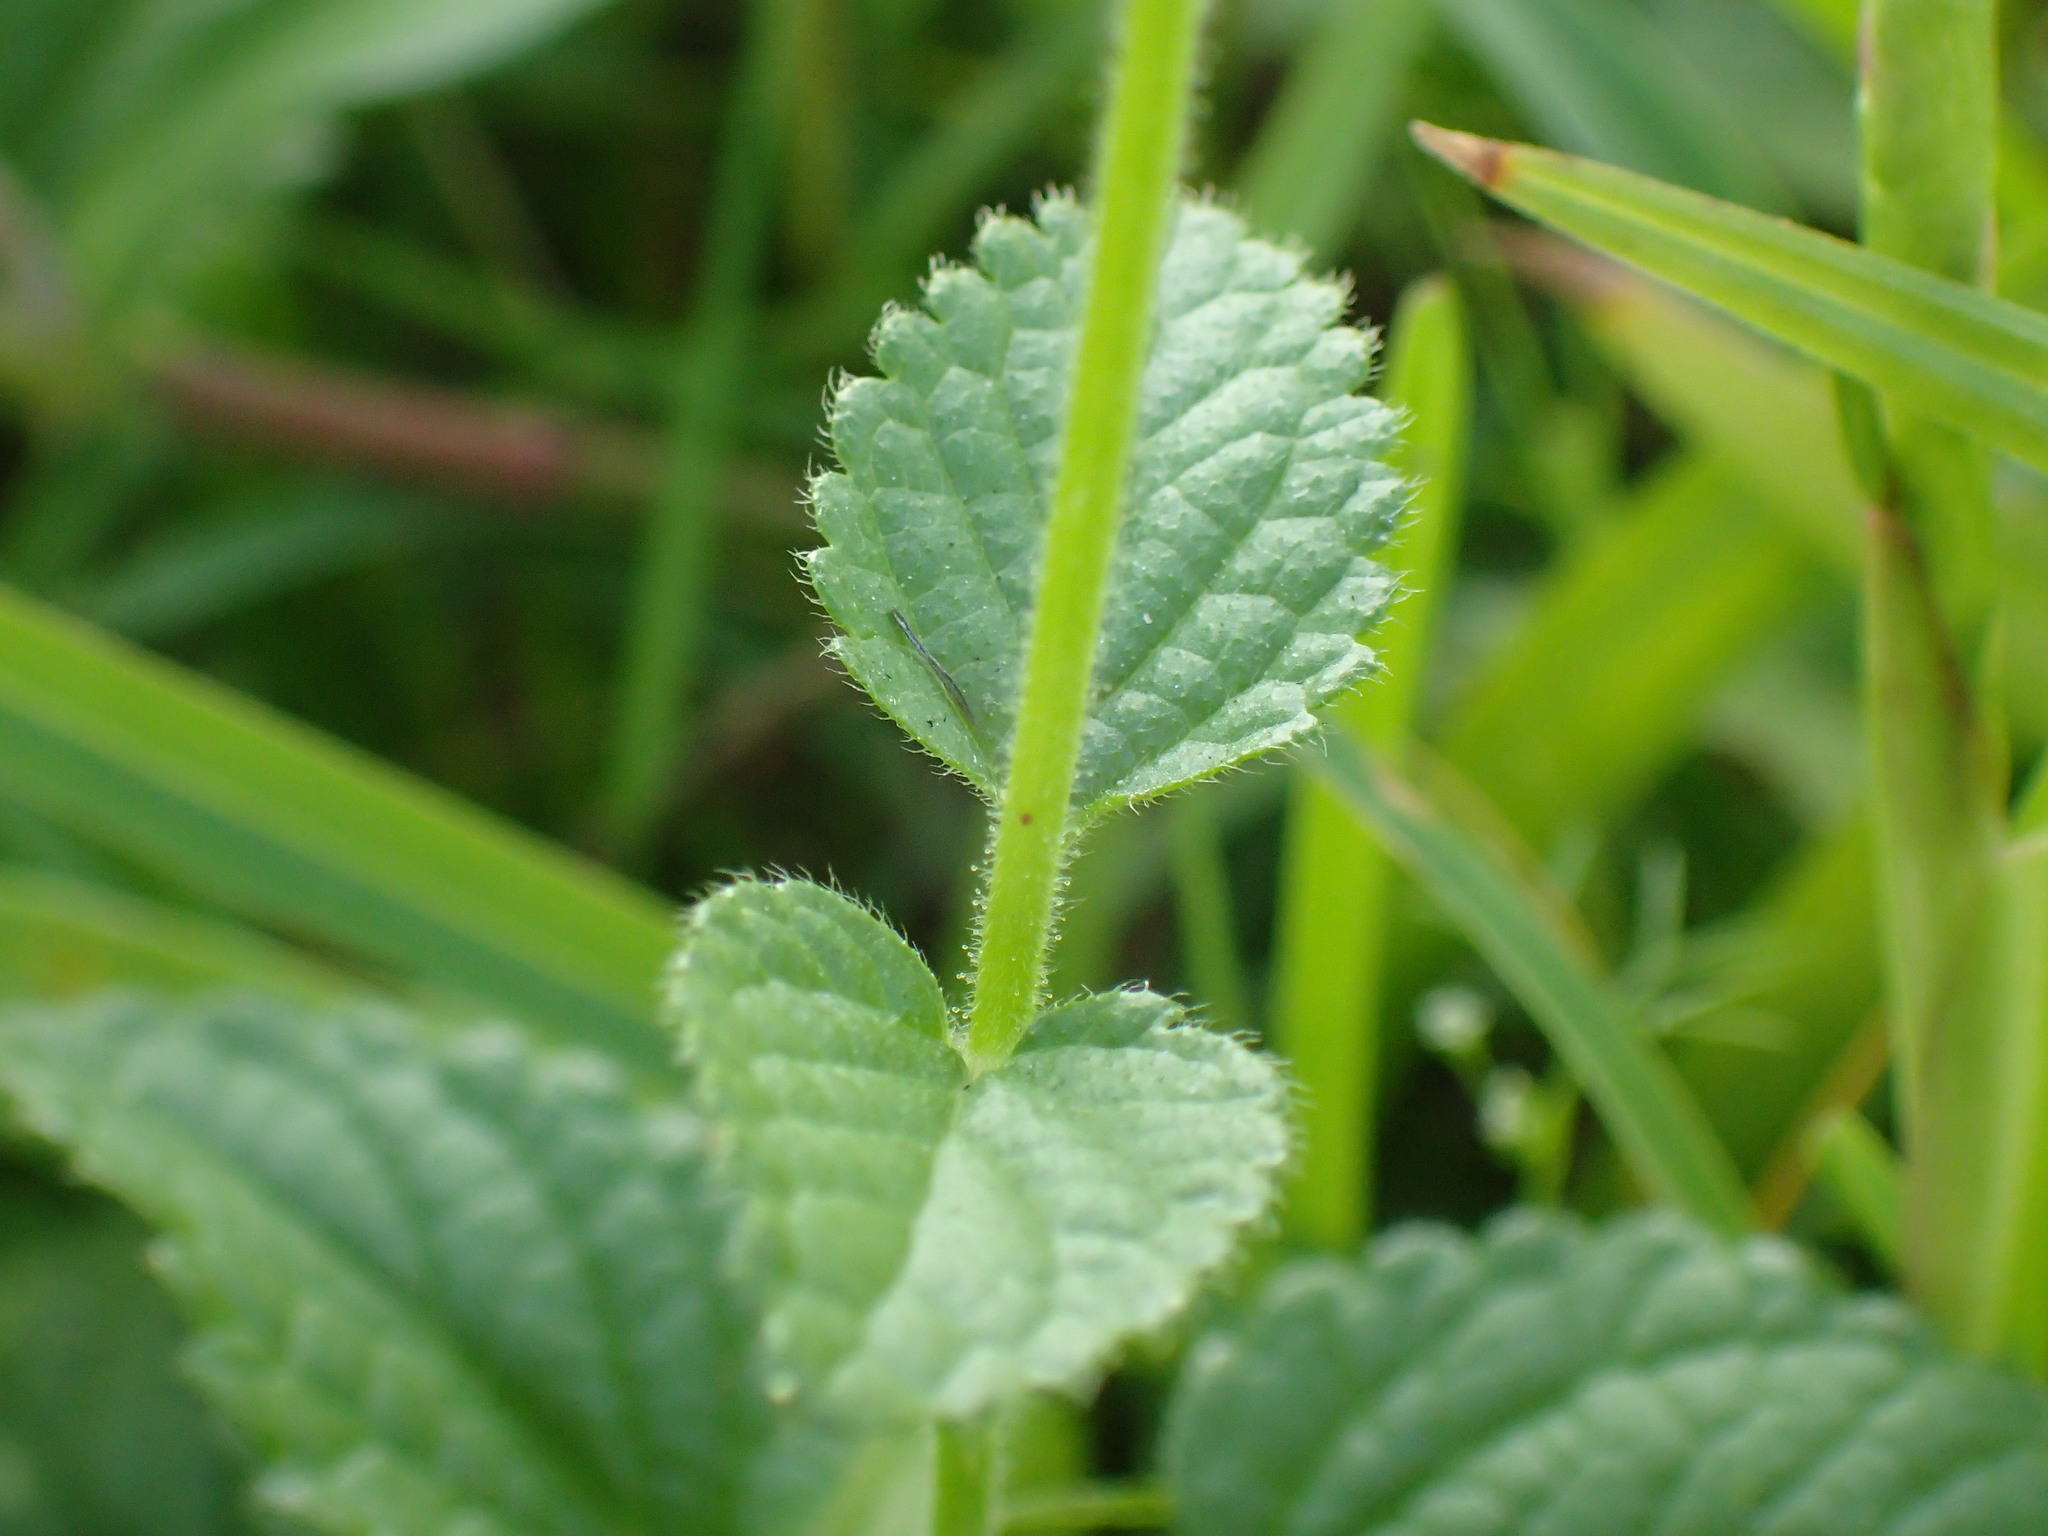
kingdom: Plantae
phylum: Tracheophyta
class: Magnoliopsida
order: Lamiales
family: Lamiaceae
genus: Stachys
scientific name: Stachys aethiopica
